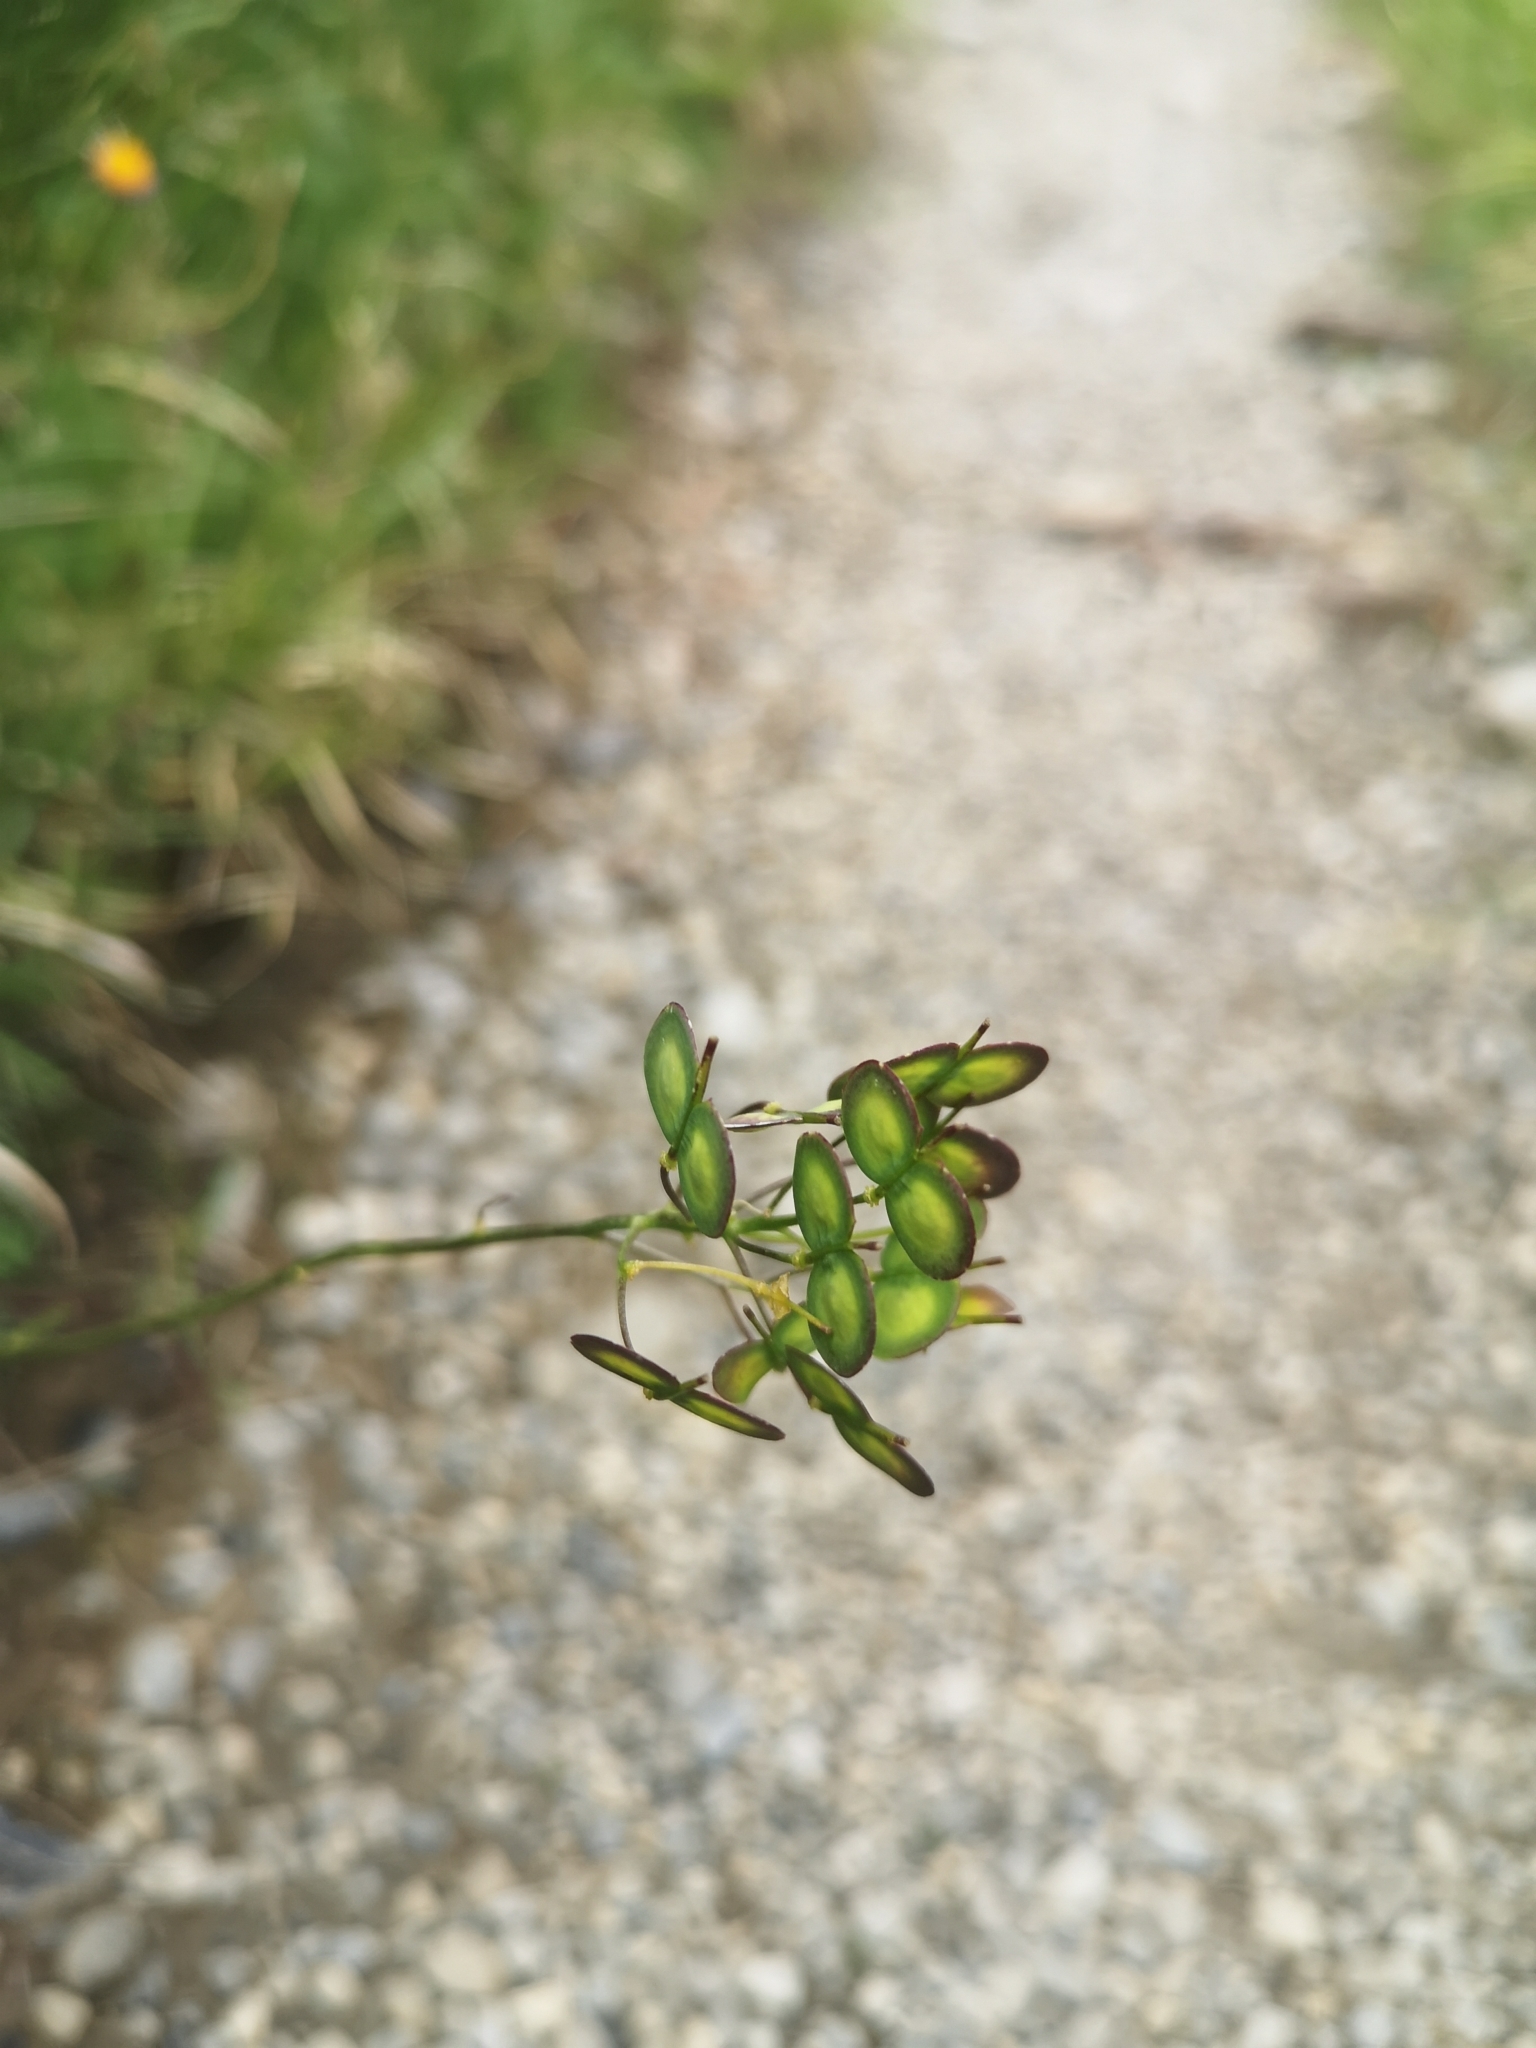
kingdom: Plantae
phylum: Tracheophyta
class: Magnoliopsida
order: Brassicales
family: Brassicaceae
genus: Biscutella
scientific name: Biscutella laevigata
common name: Buckler mustard
